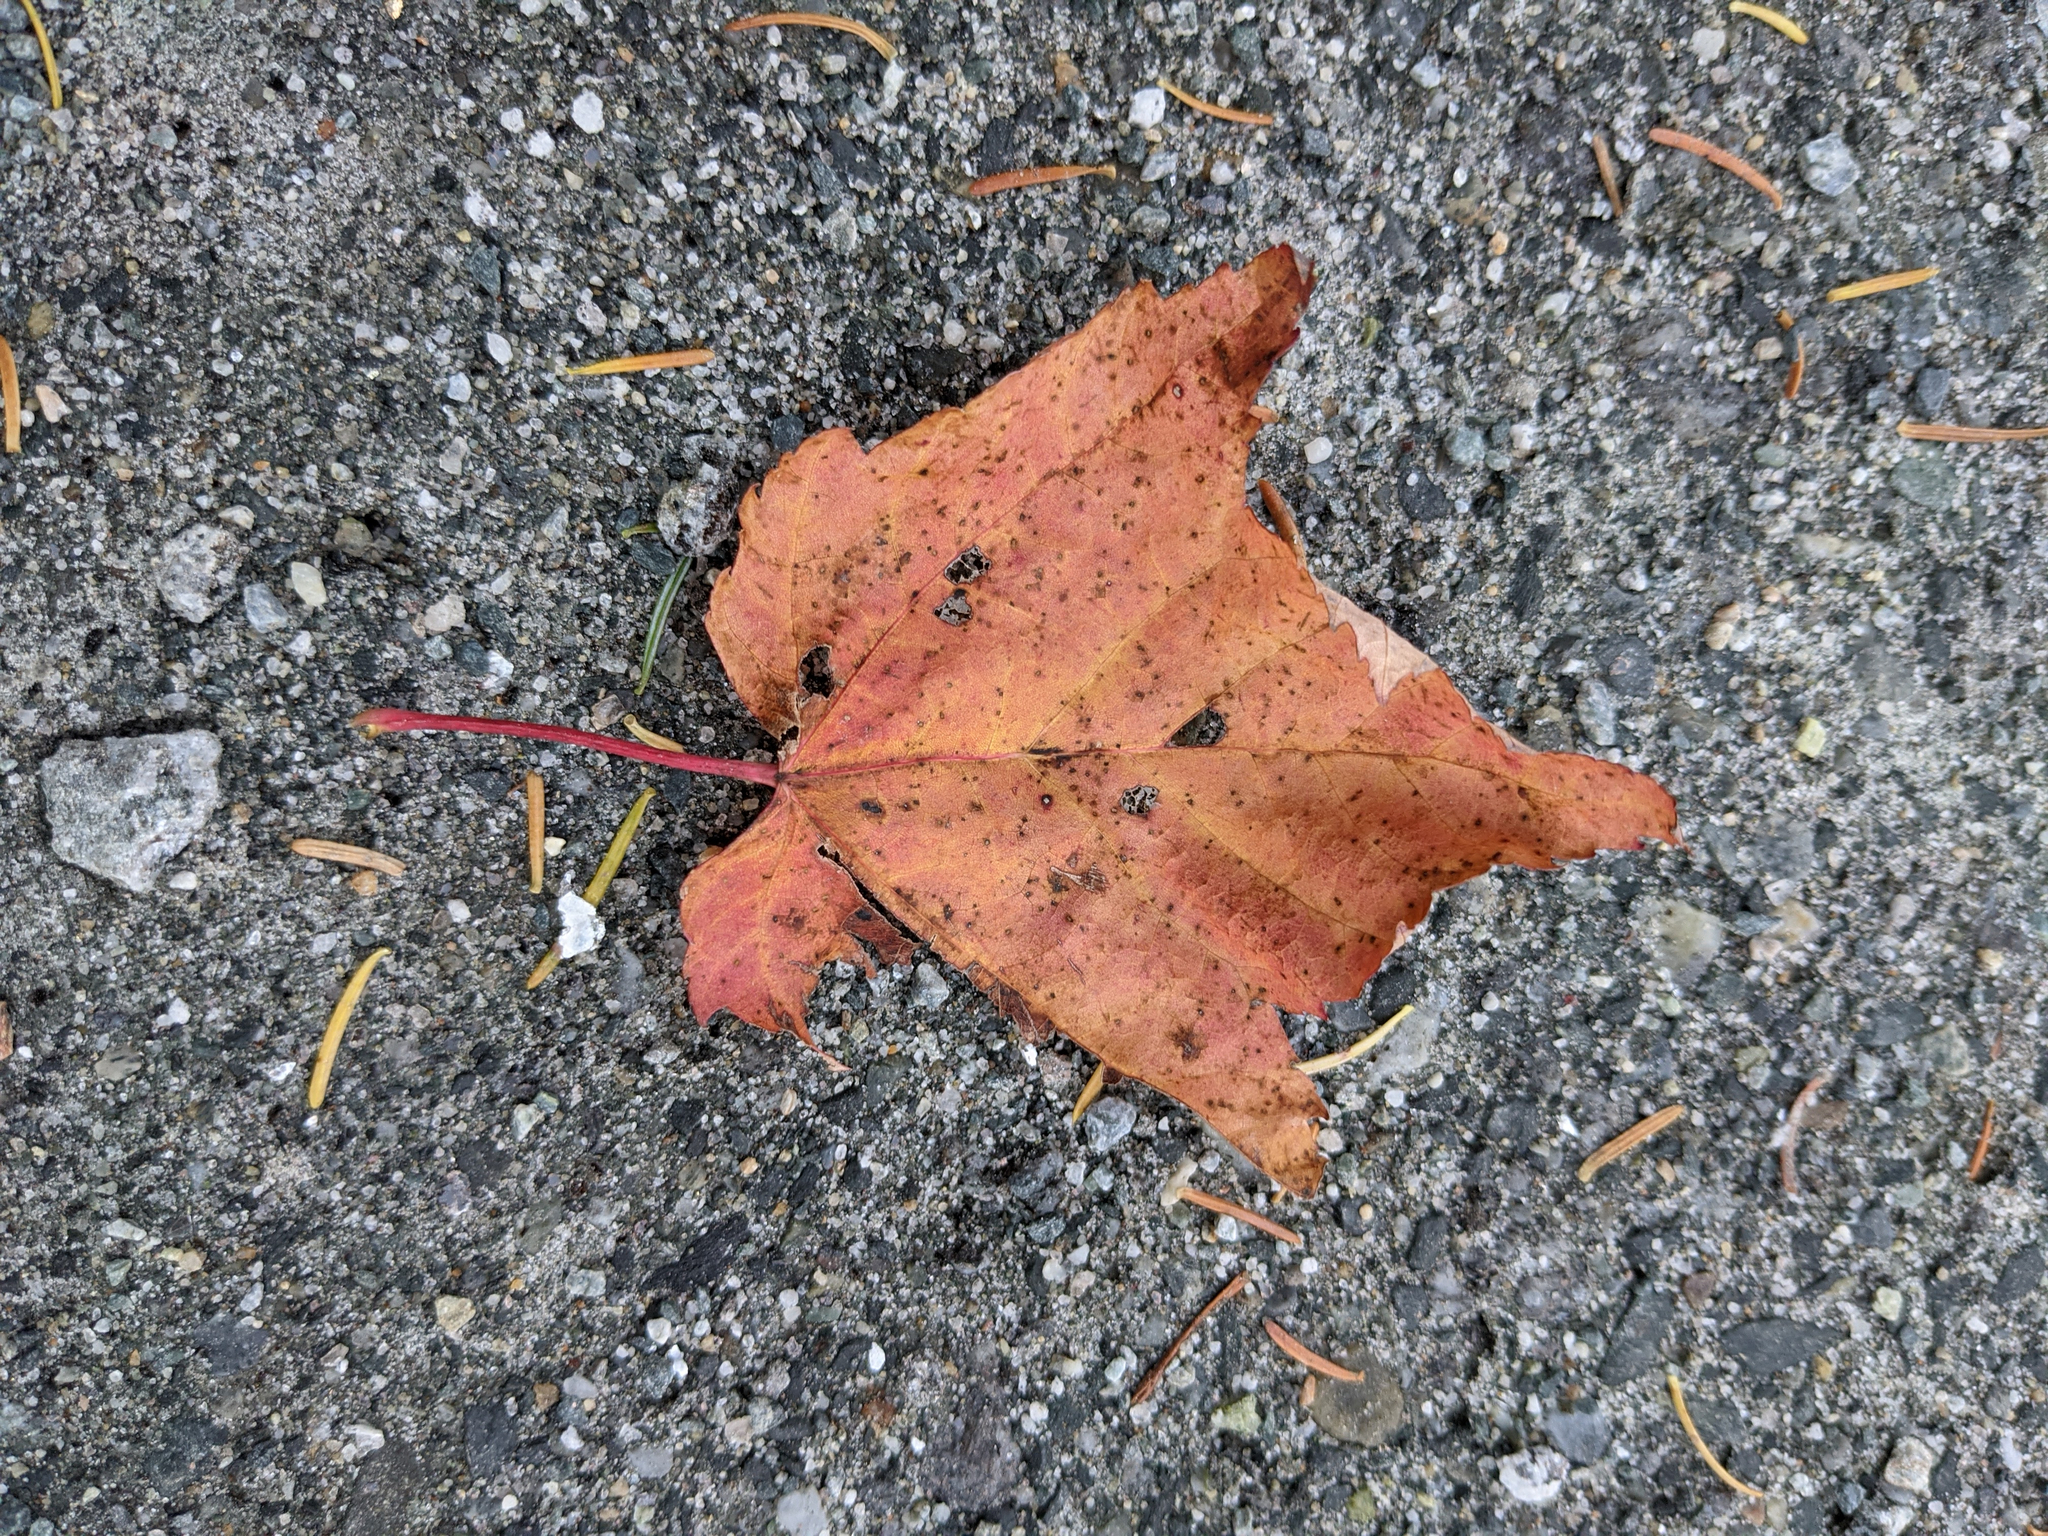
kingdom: Plantae
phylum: Tracheophyta
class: Magnoliopsida
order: Sapindales
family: Sapindaceae
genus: Acer
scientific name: Acer rubrum
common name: Red maple
